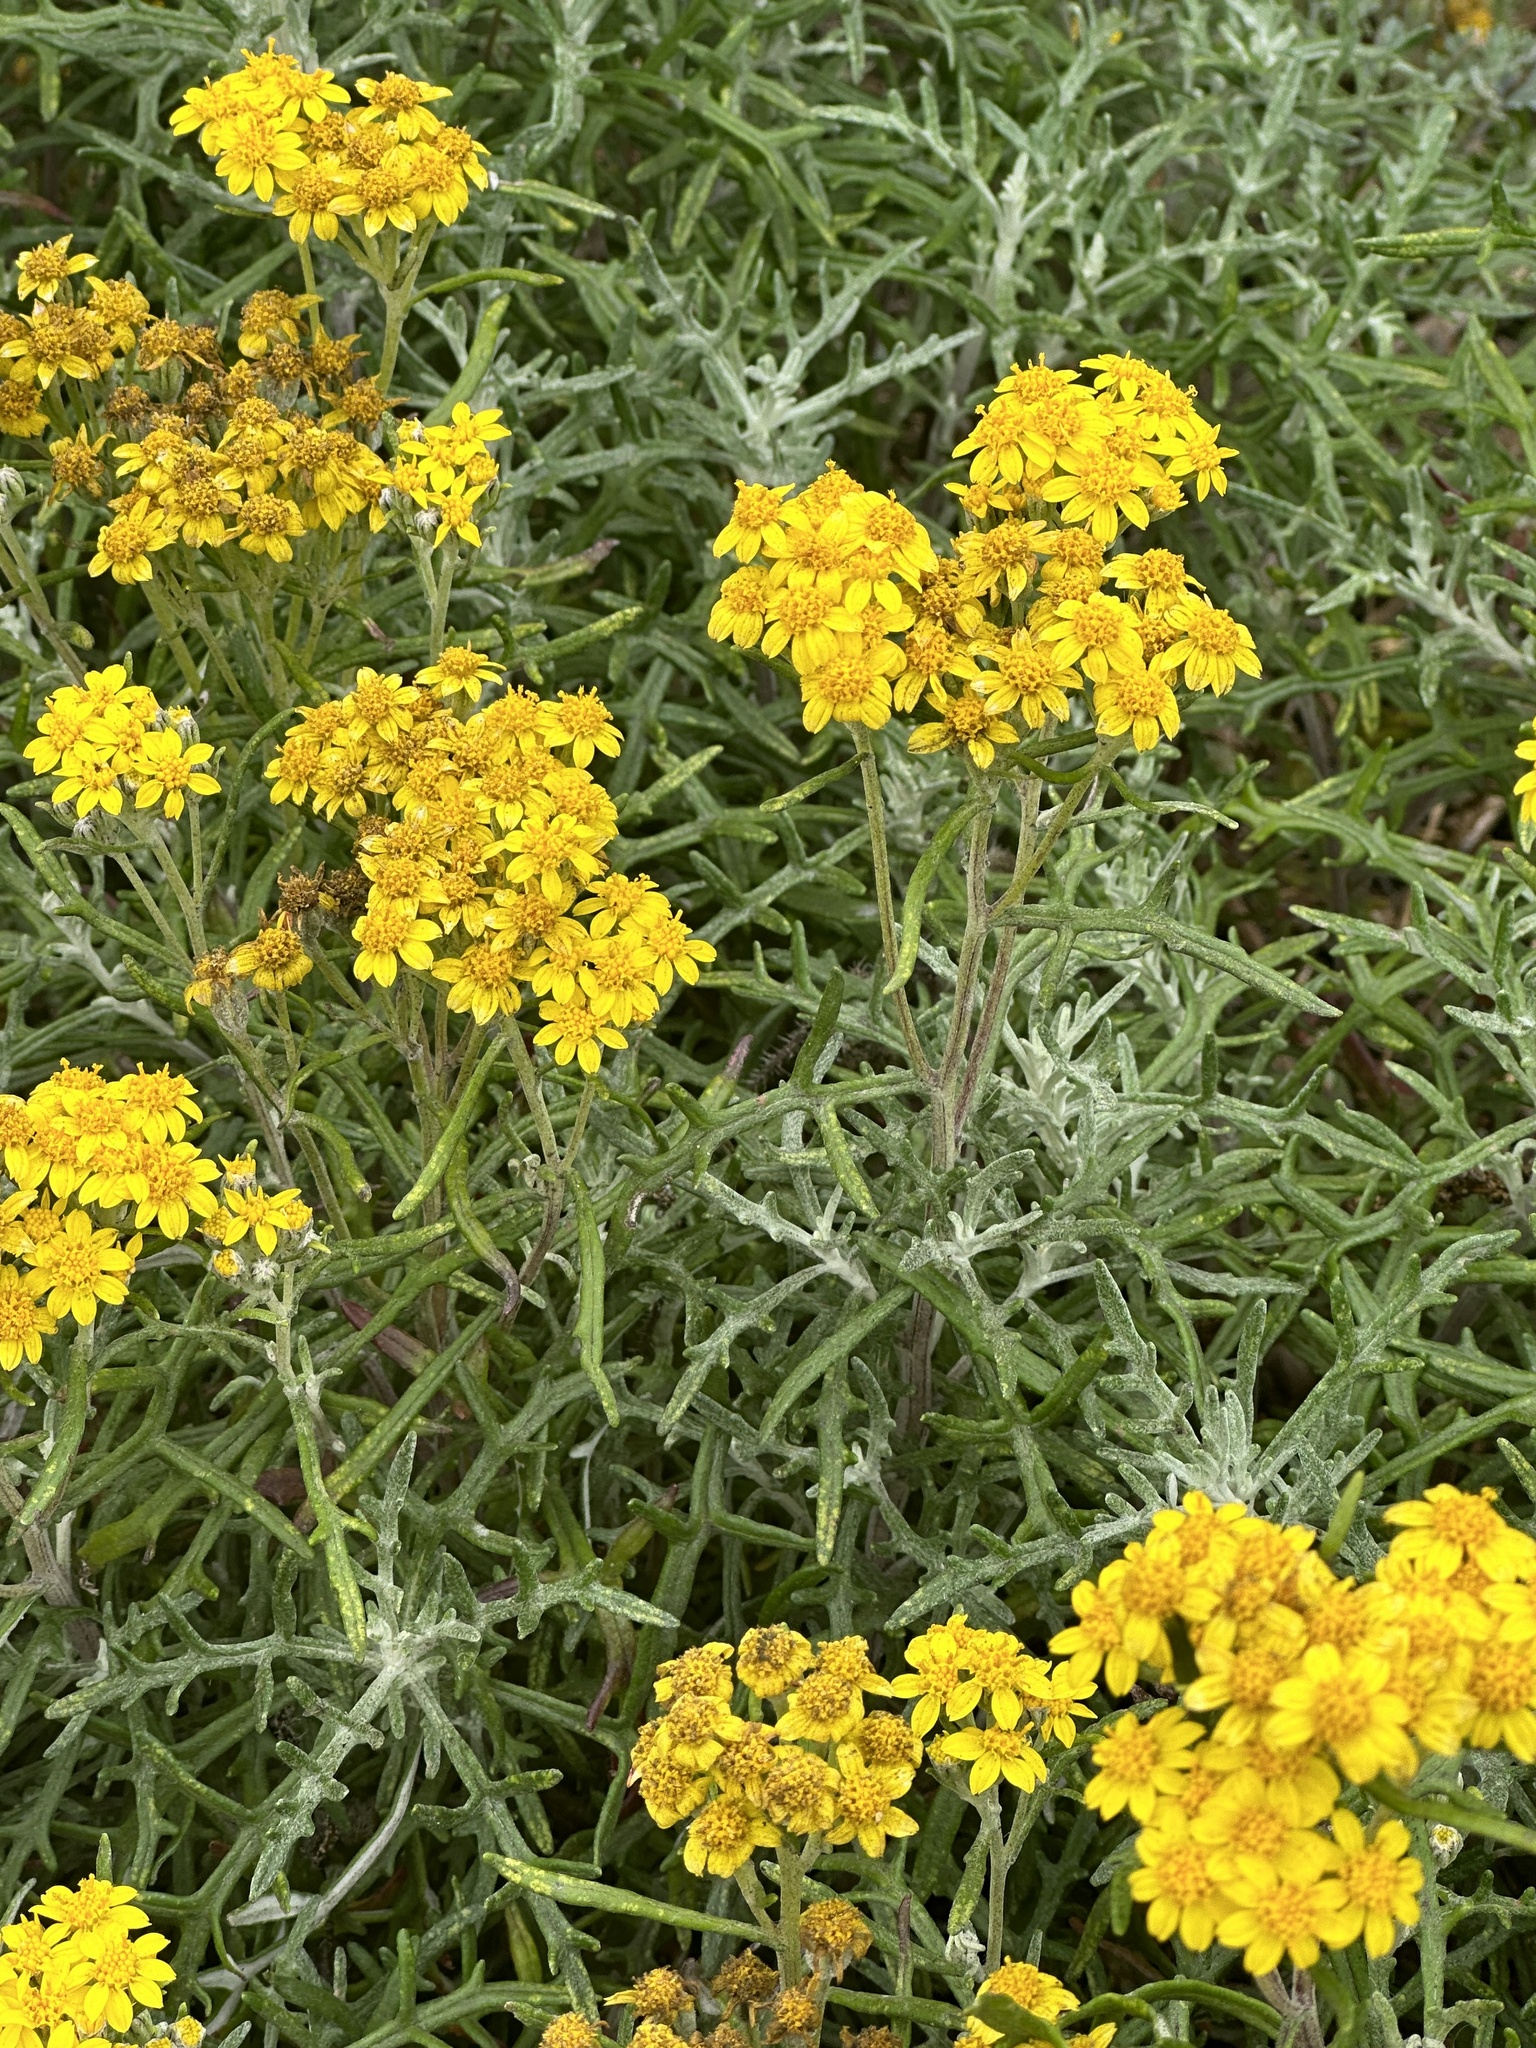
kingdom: Plantae
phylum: Tracheophyta
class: Magnoliopsida
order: Asterales
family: Asteraceae
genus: Eriophyllum
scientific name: Eriophyllum staechadifolium
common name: Lizardtail
